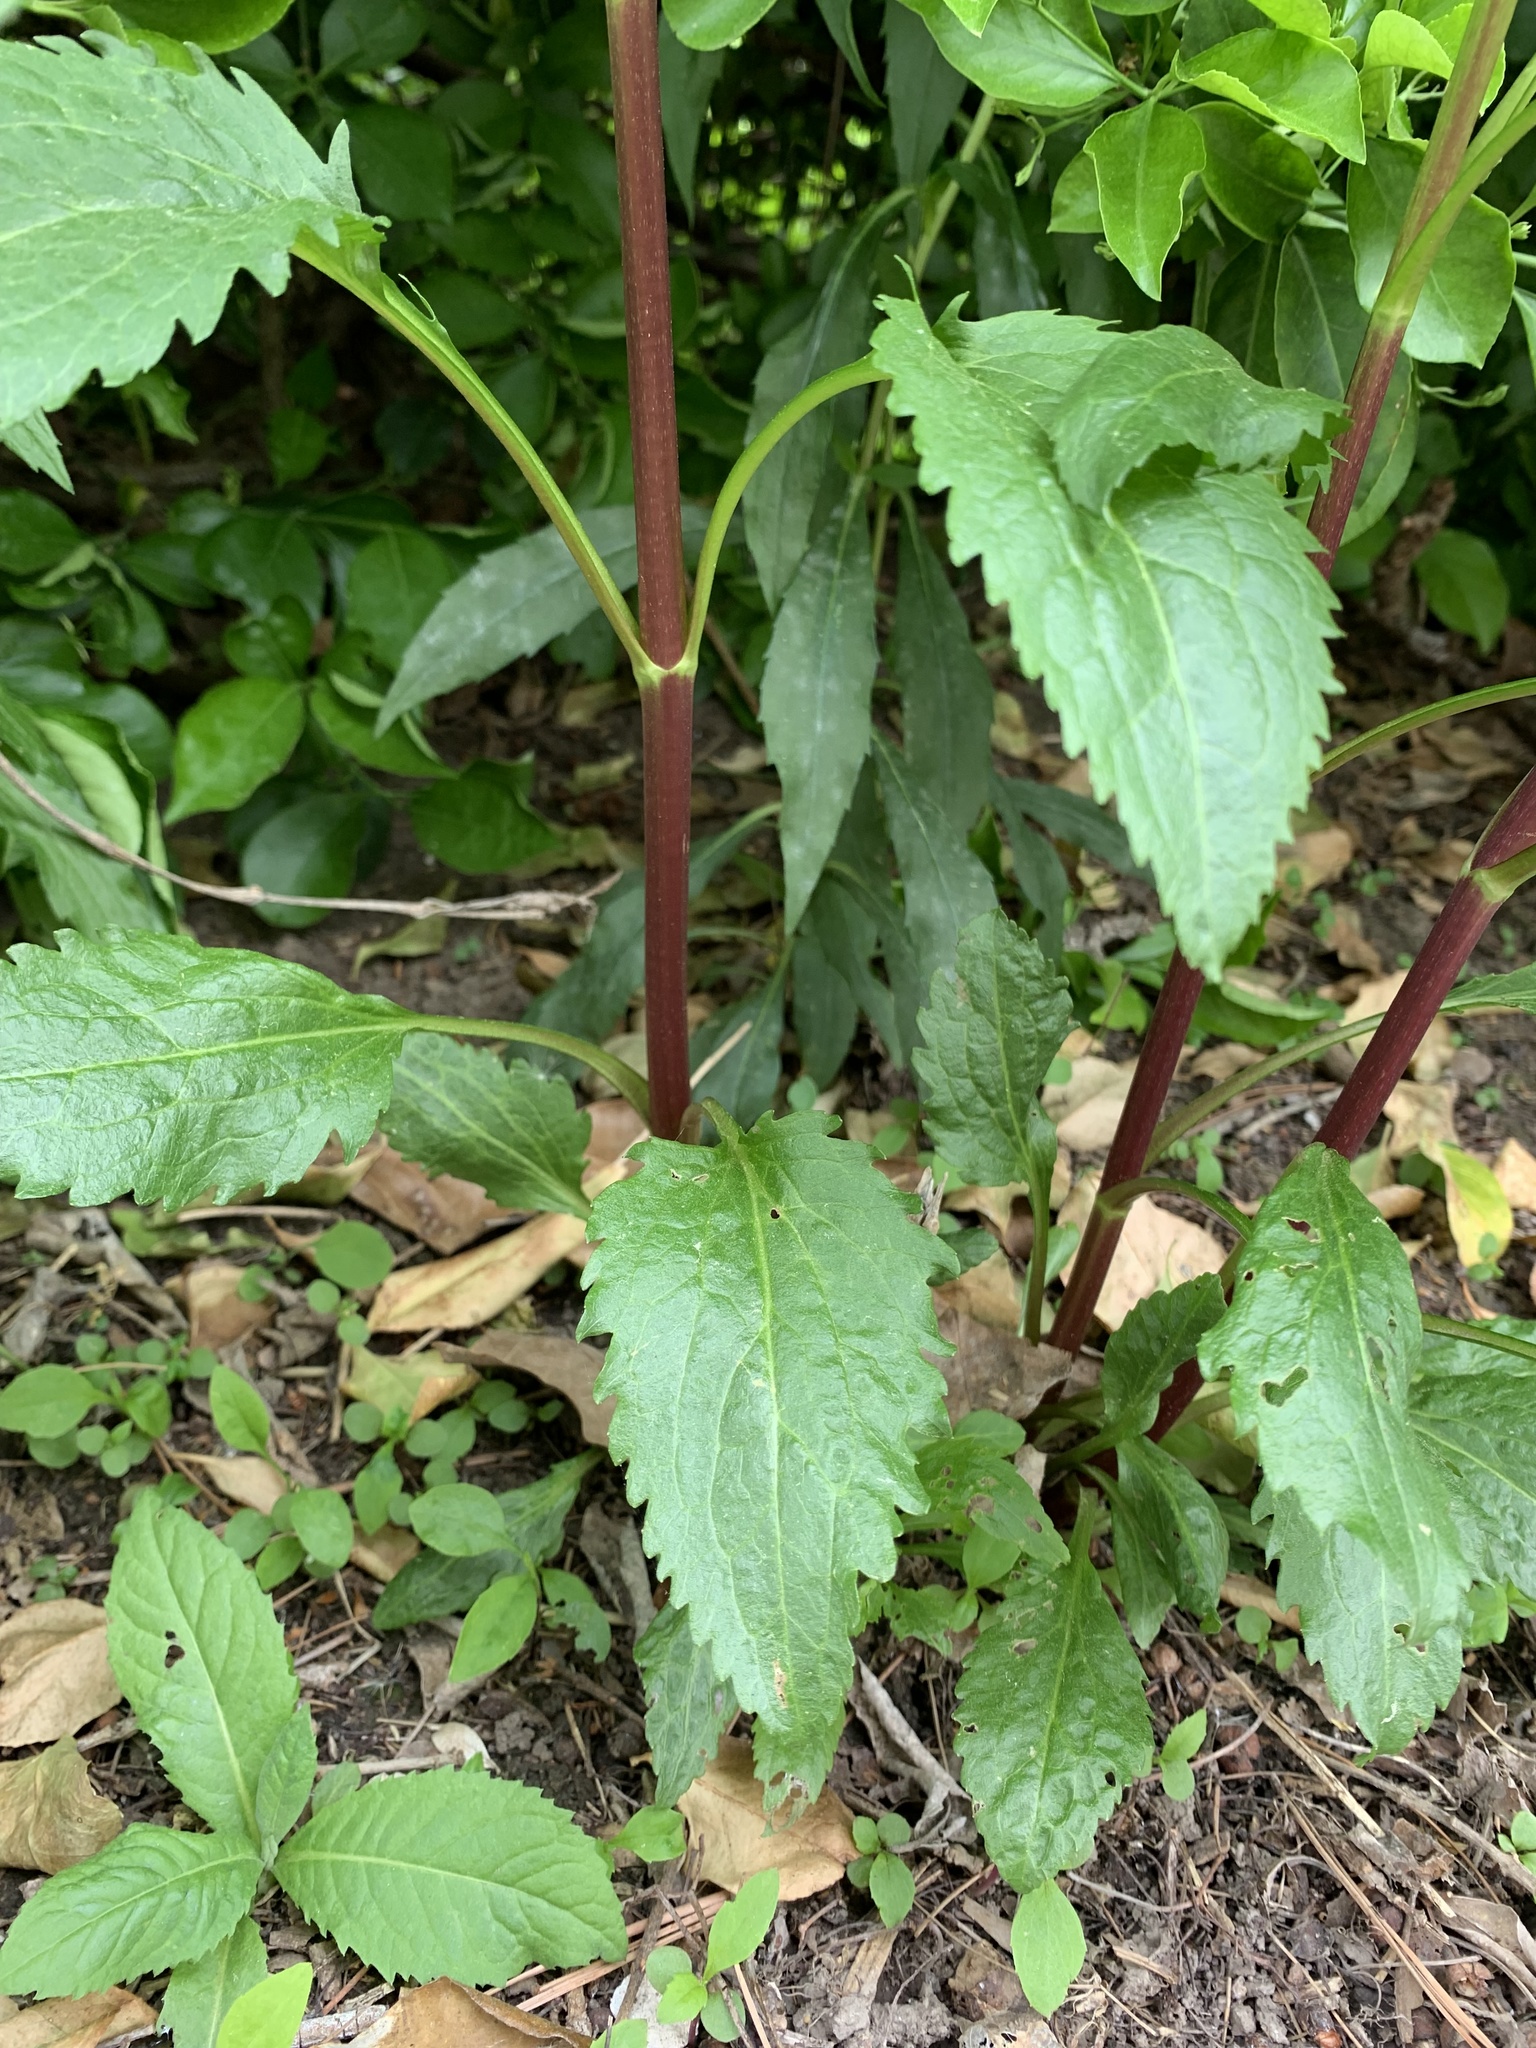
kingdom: Plantae
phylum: Tracheophyta
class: Magnoliopsida
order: Asterales
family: Asteraceae
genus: Eupatorium
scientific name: Eupatorium serotinum
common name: Late boneset
